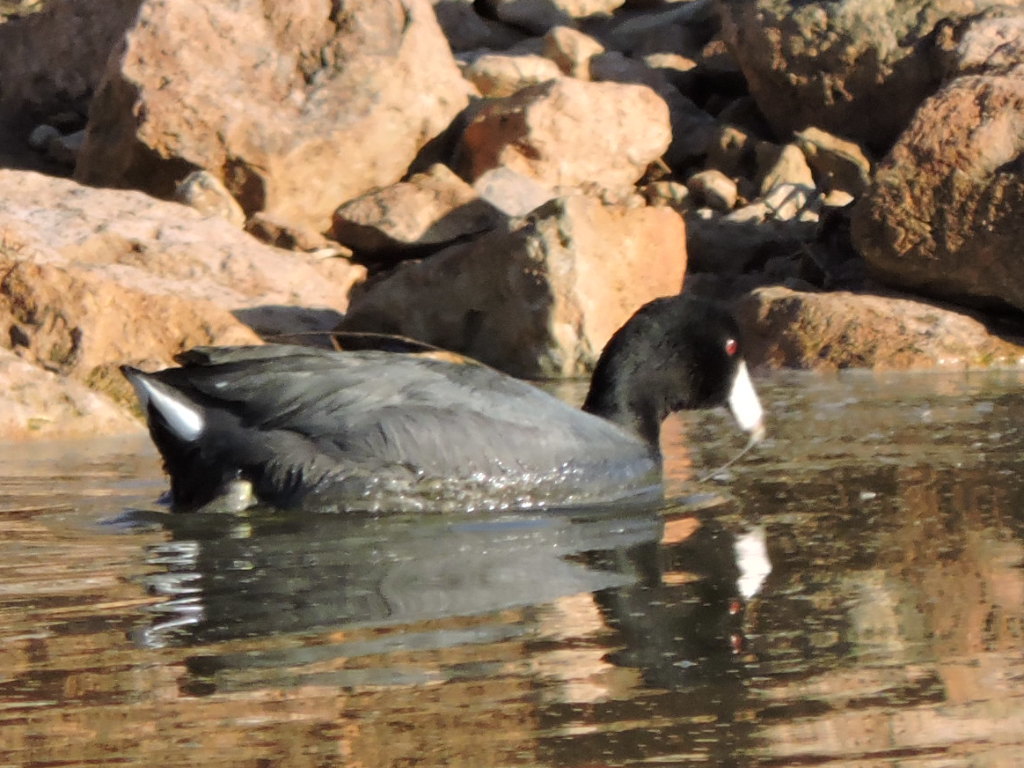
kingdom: Animalia
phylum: Chordata
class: Aves
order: Gruiformes
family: Rallidae
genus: Fulica
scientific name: Fulica americana
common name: American coot
